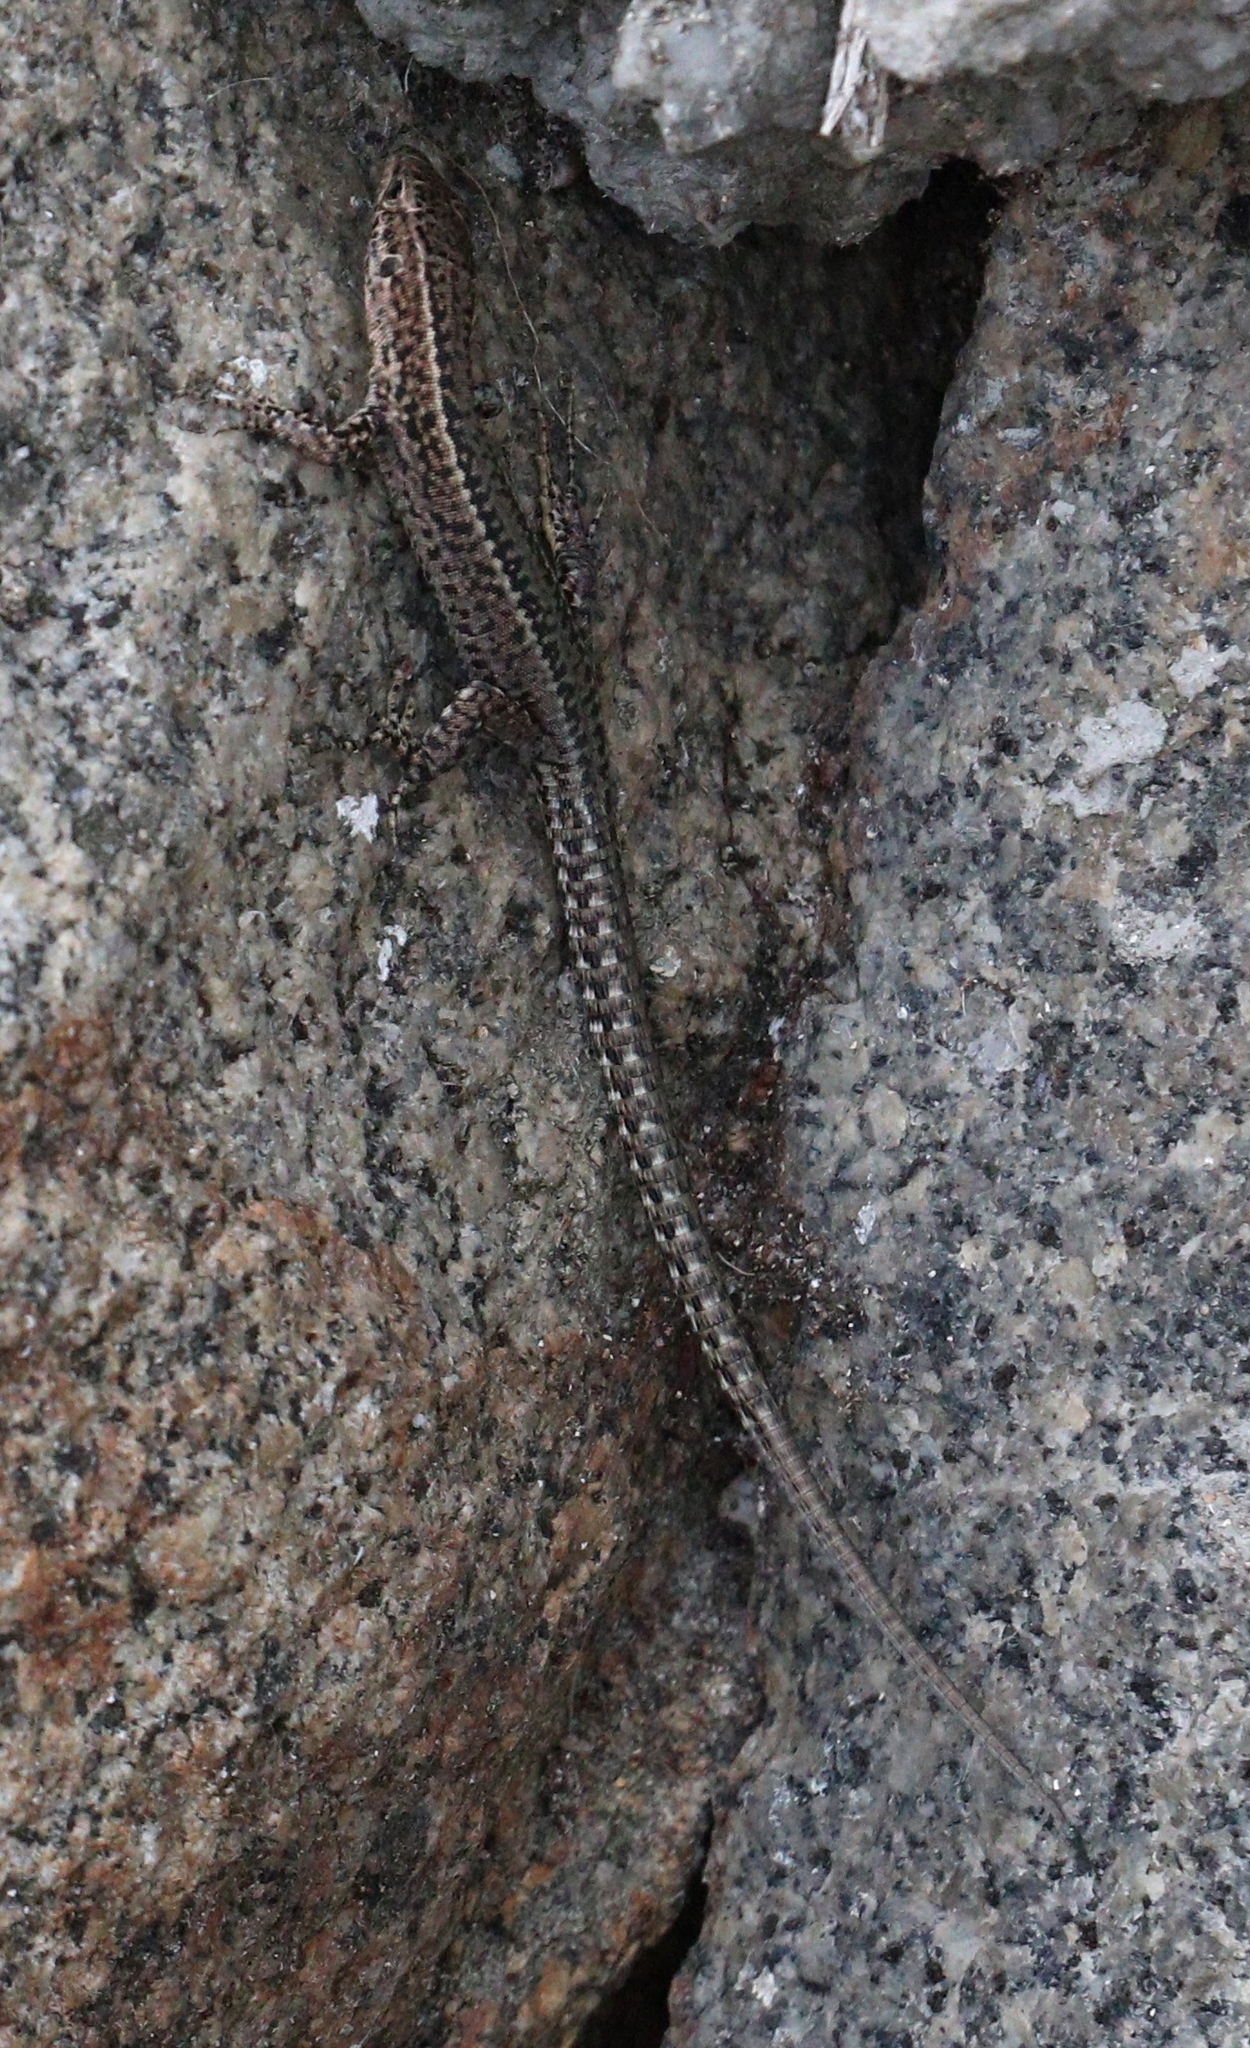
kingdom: Animalia
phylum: Chordata
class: Squamata
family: Lacertidae
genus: Podarcis
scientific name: Podarcis bocagei
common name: Bocage's wall lizard
